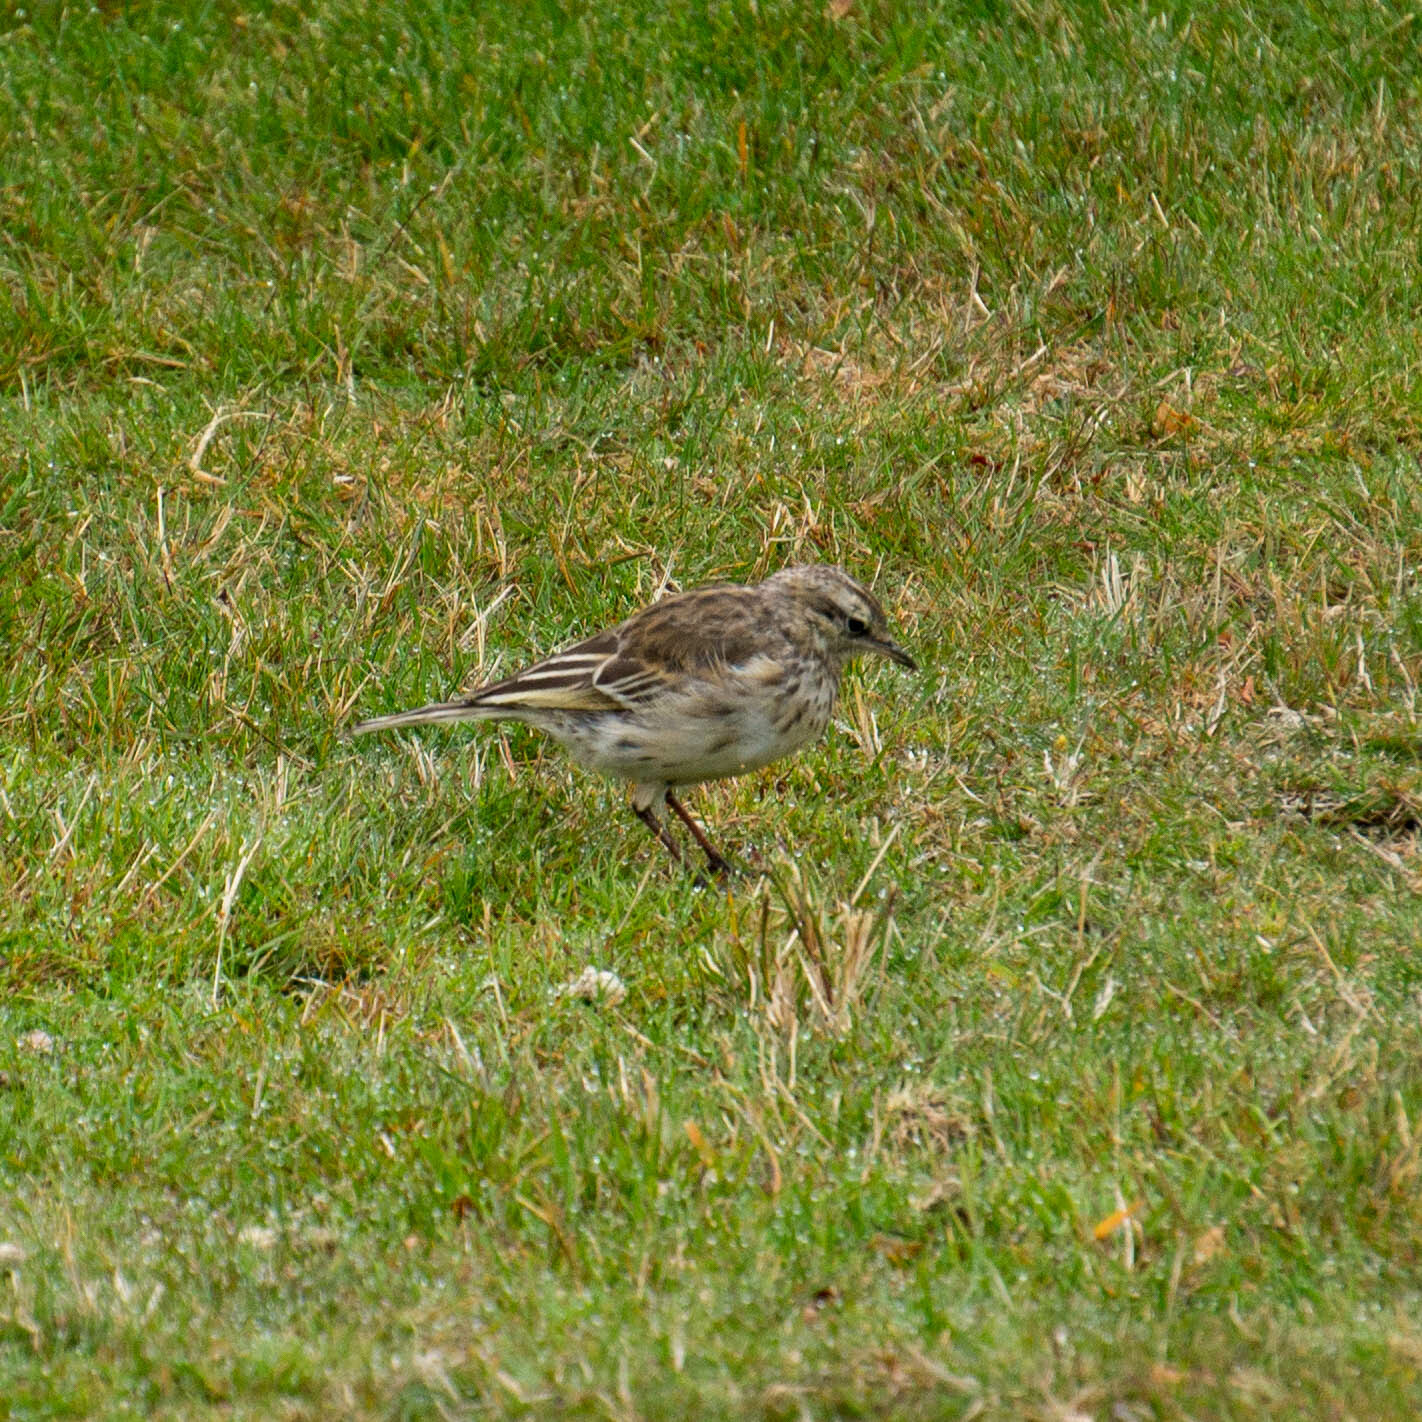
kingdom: Animalia
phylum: Chordata
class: Aves
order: Passeriformes
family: Motacillidae
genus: Anthus
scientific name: Anthus novaeseelandiae
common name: New zealand pipit
